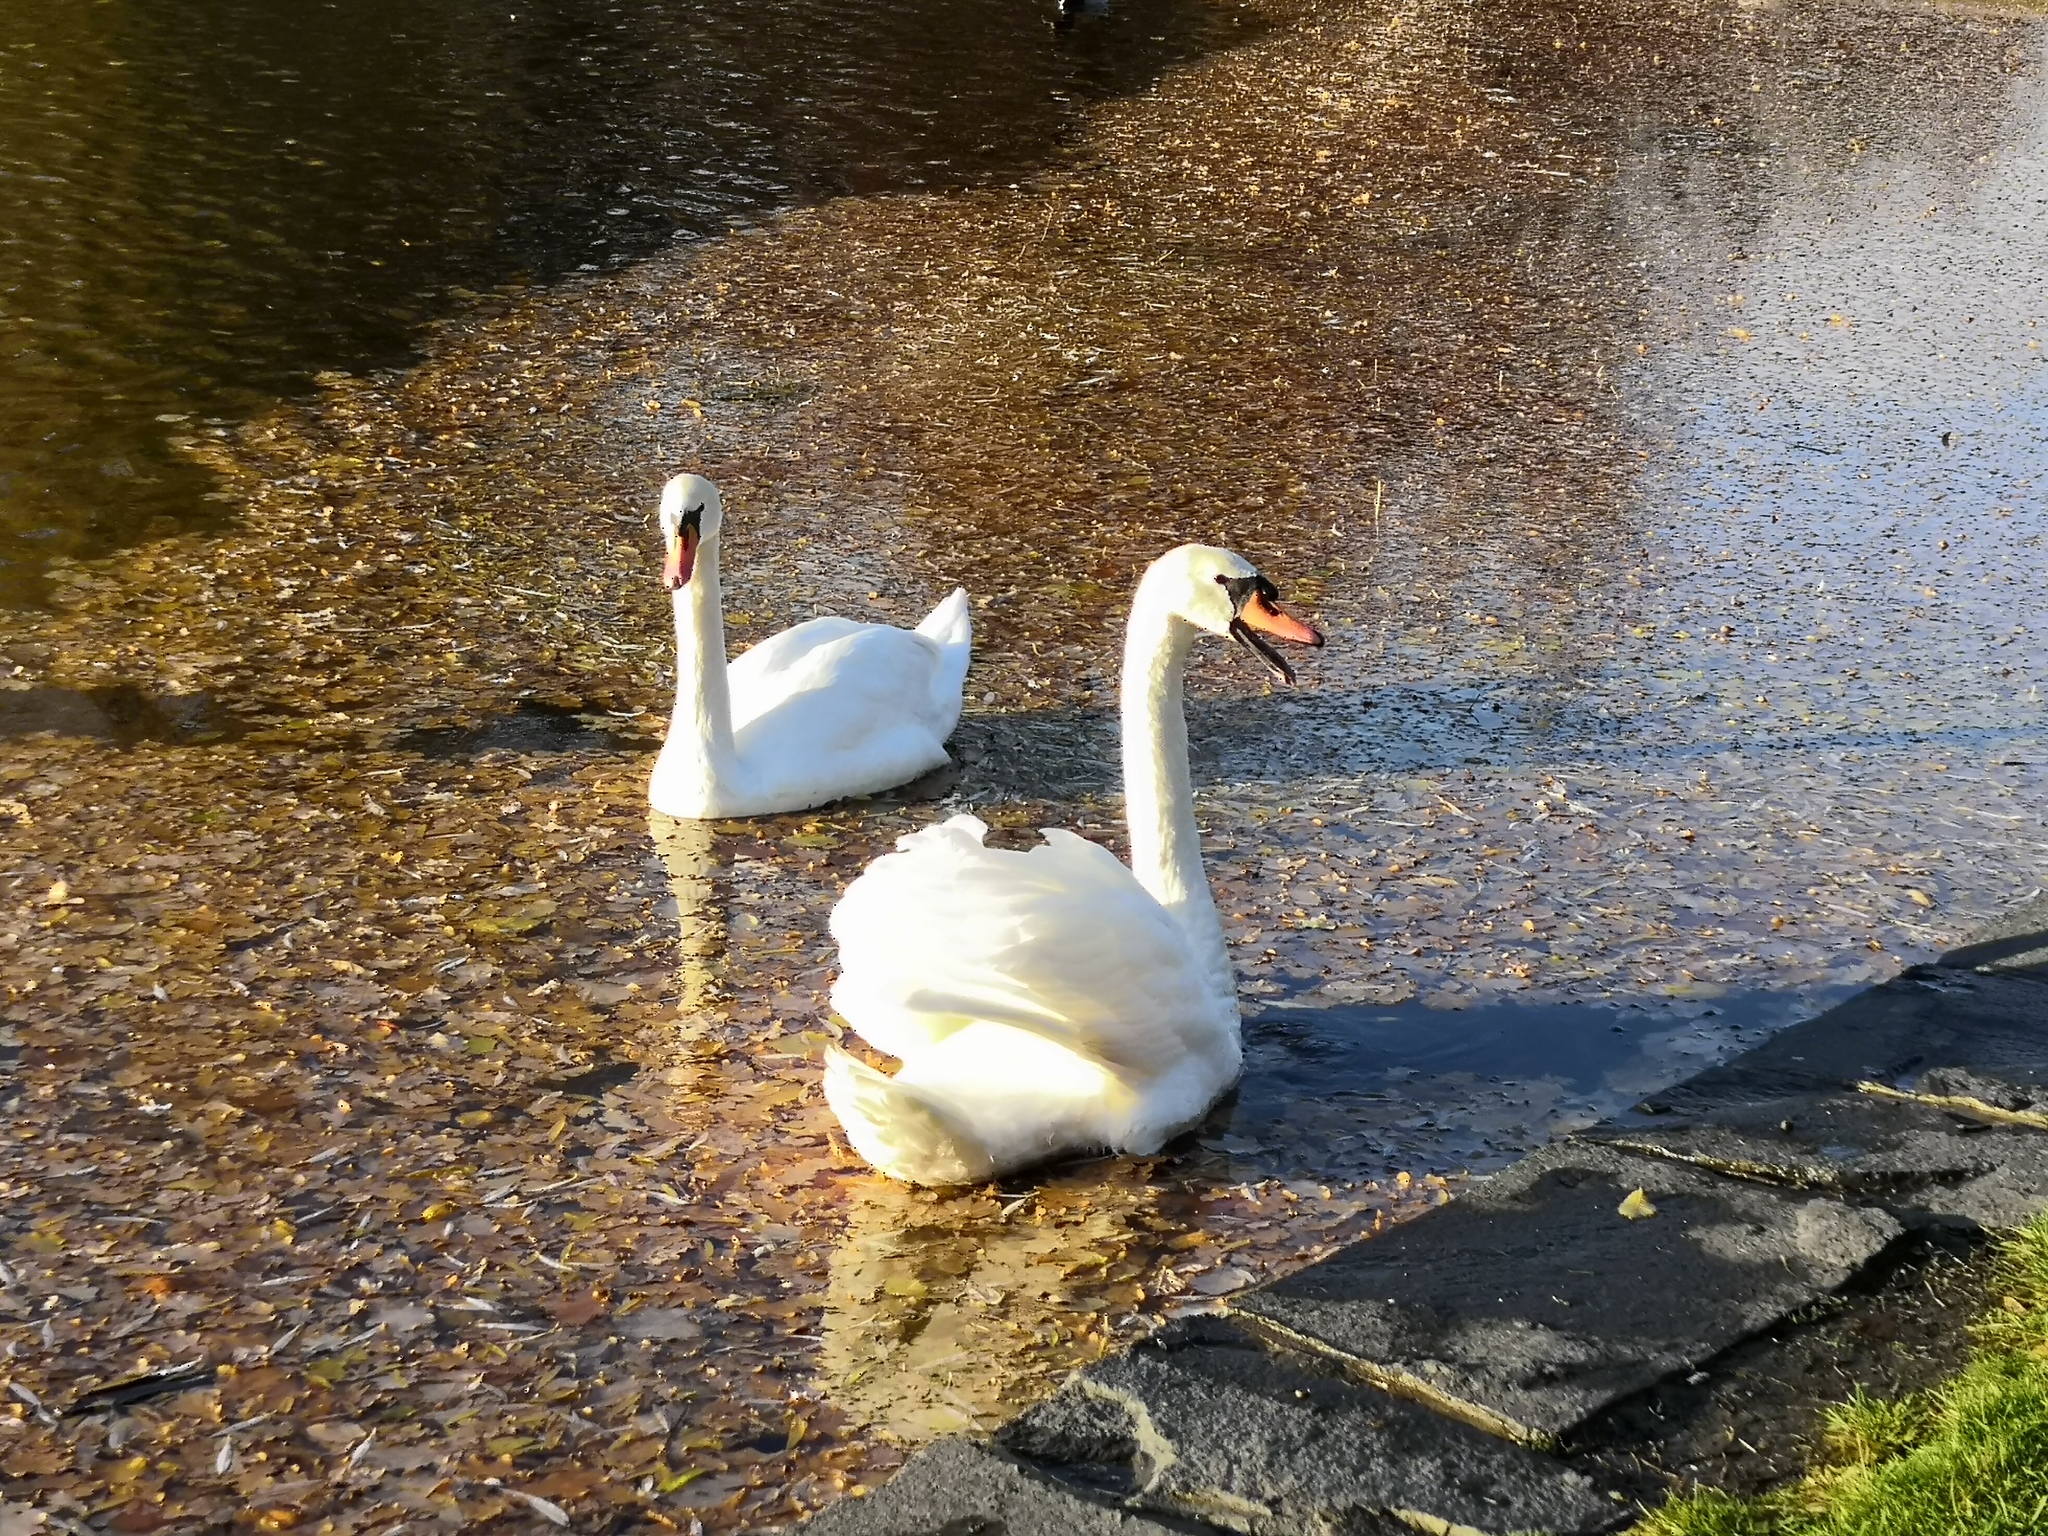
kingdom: Animalia
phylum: Chordata
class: Aves
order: Anseriformes
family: Anatidae
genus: Cygnus
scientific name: Cygnus olor
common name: Mute swan
